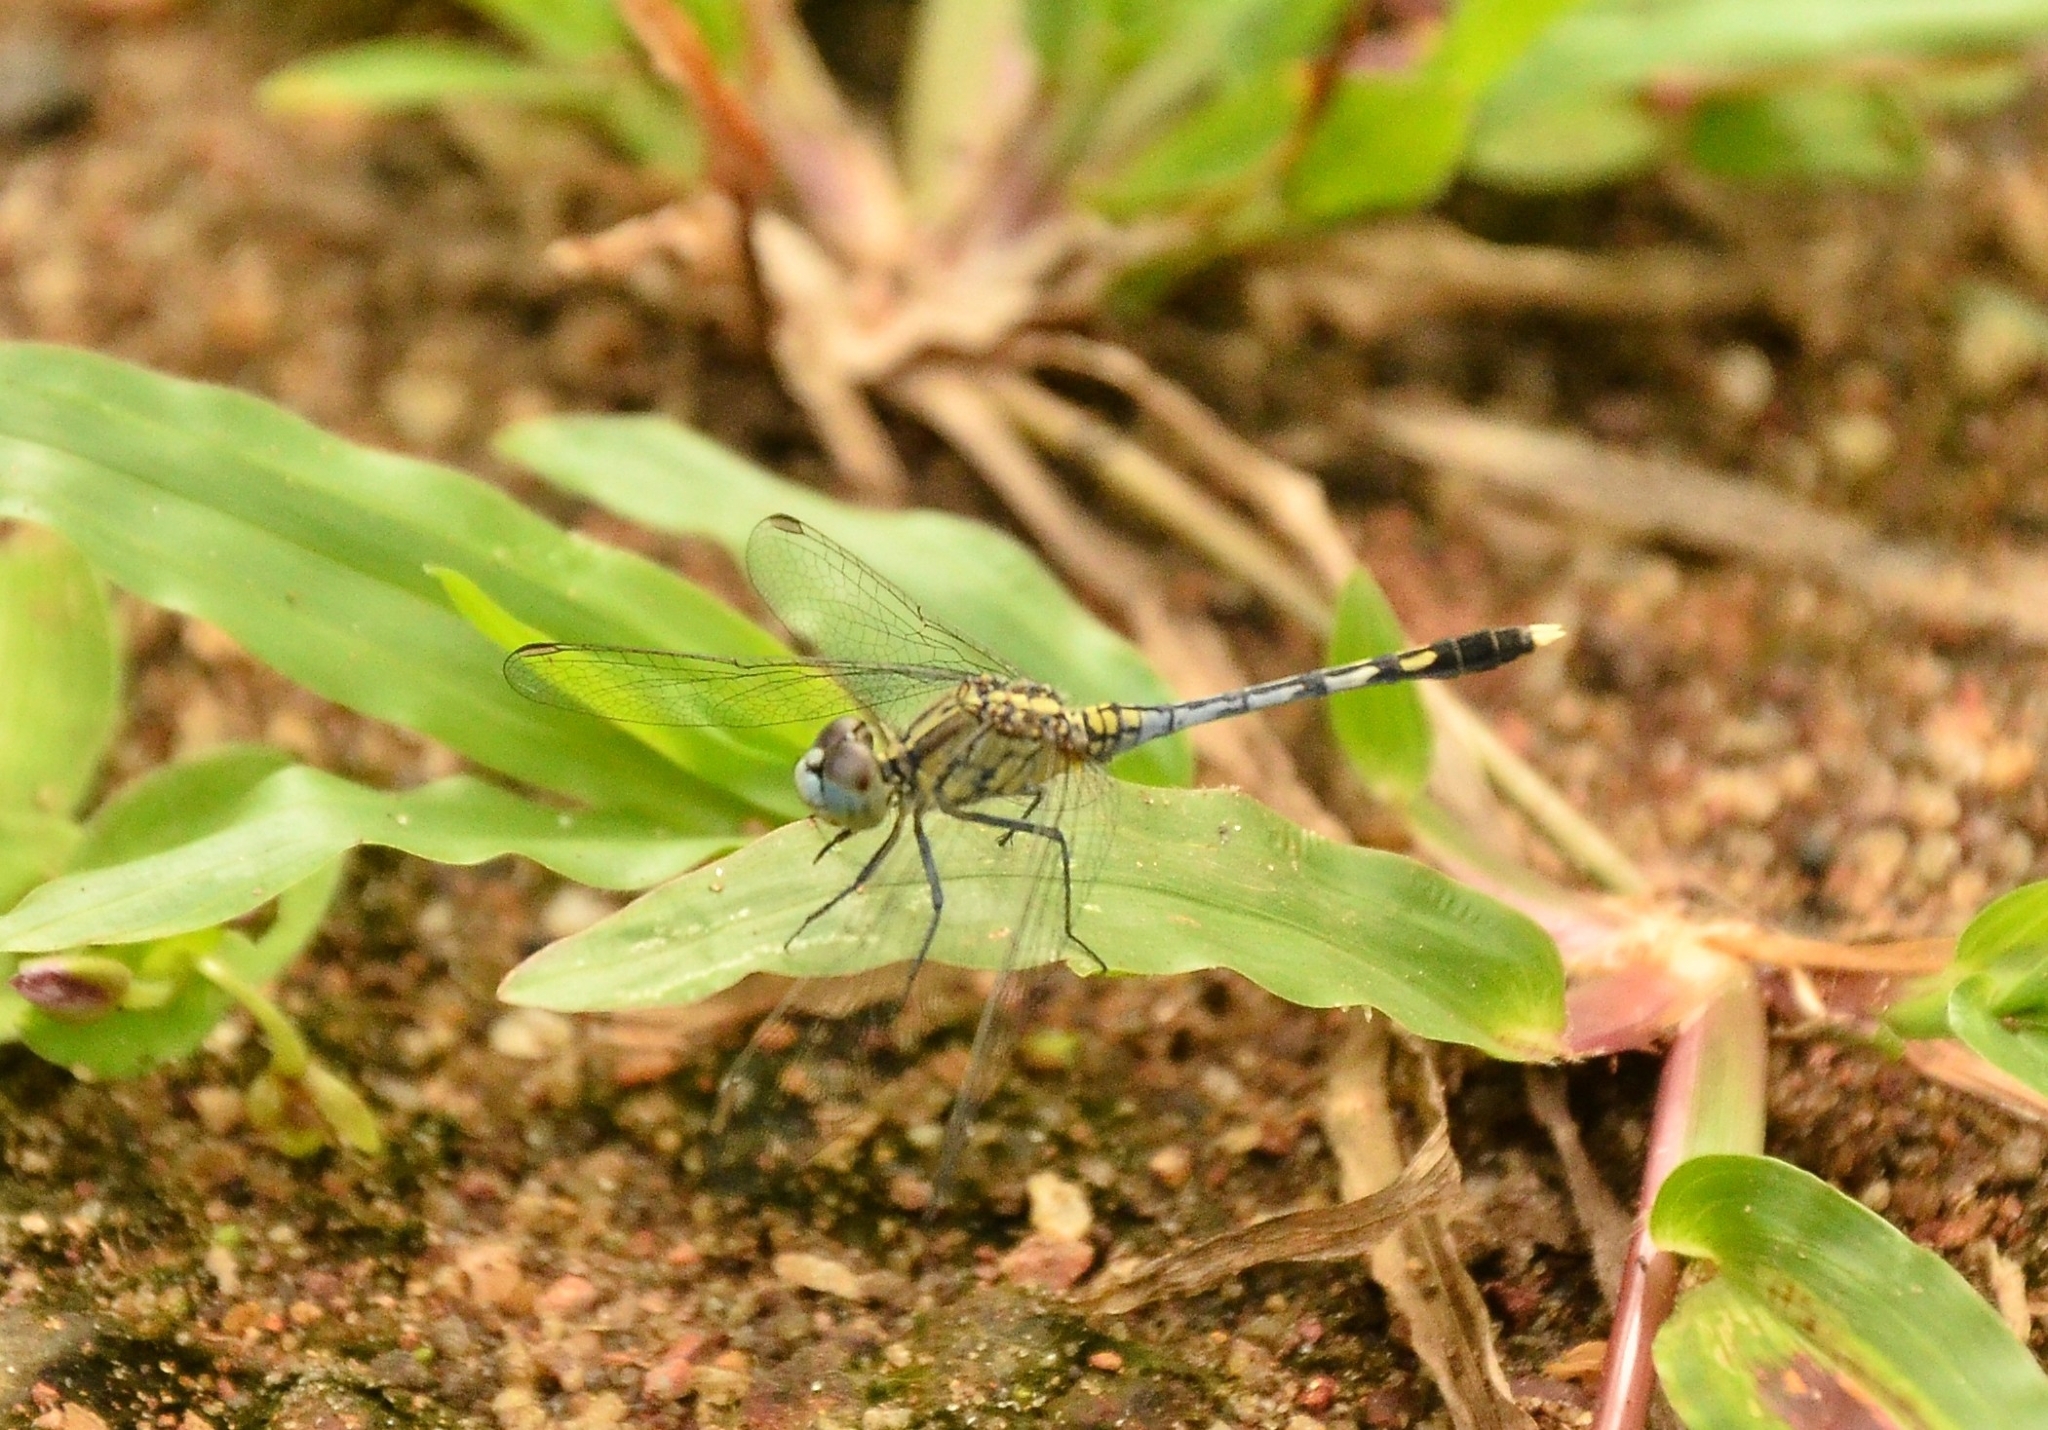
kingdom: Animalia
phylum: Arthropoda
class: Insecta
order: Odonata
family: Libellulidae
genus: Diplacodes
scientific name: Diplacodes trivialis
